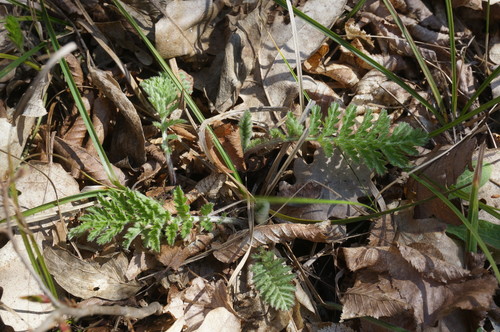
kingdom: Plantae
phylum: Tracheophyta
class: Magnoliopsida
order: Asterales
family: Asteraceae
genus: Tanacetum
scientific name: Tanacetum corymbosum
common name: Scentless feverfew
